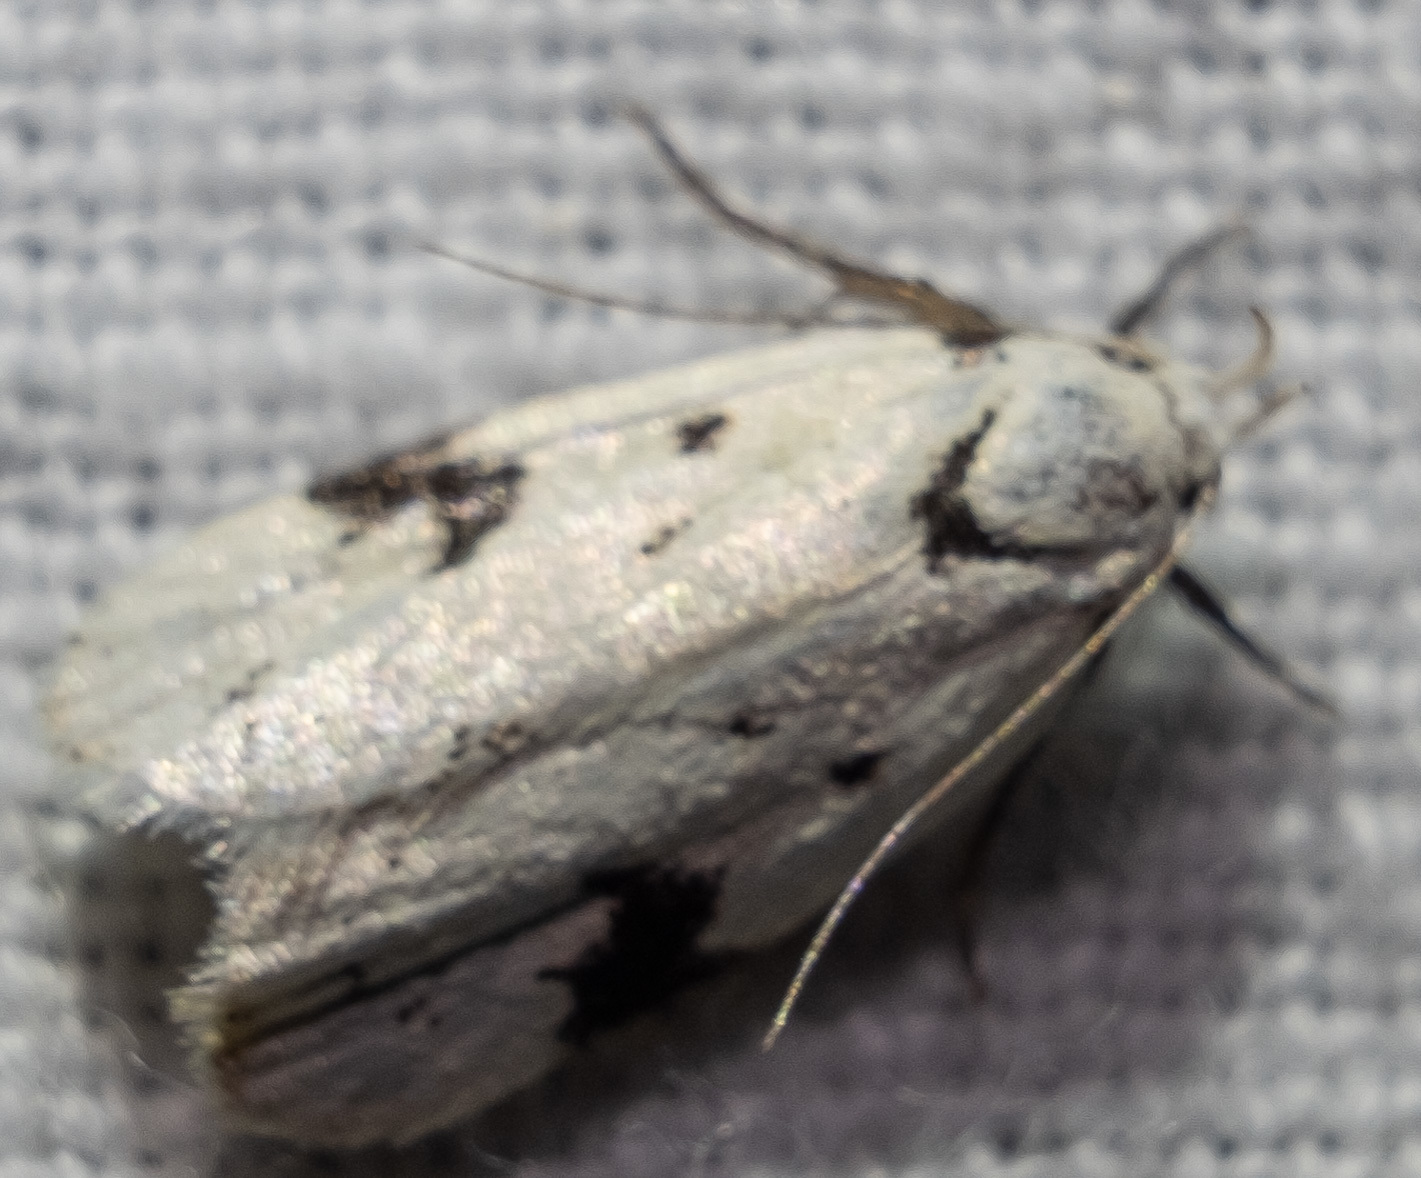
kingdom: Animalia
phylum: Arthropoda
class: Insecta
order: Lepidoptera
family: Oecophoridae
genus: Inga
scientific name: Inga sparsiciliella
